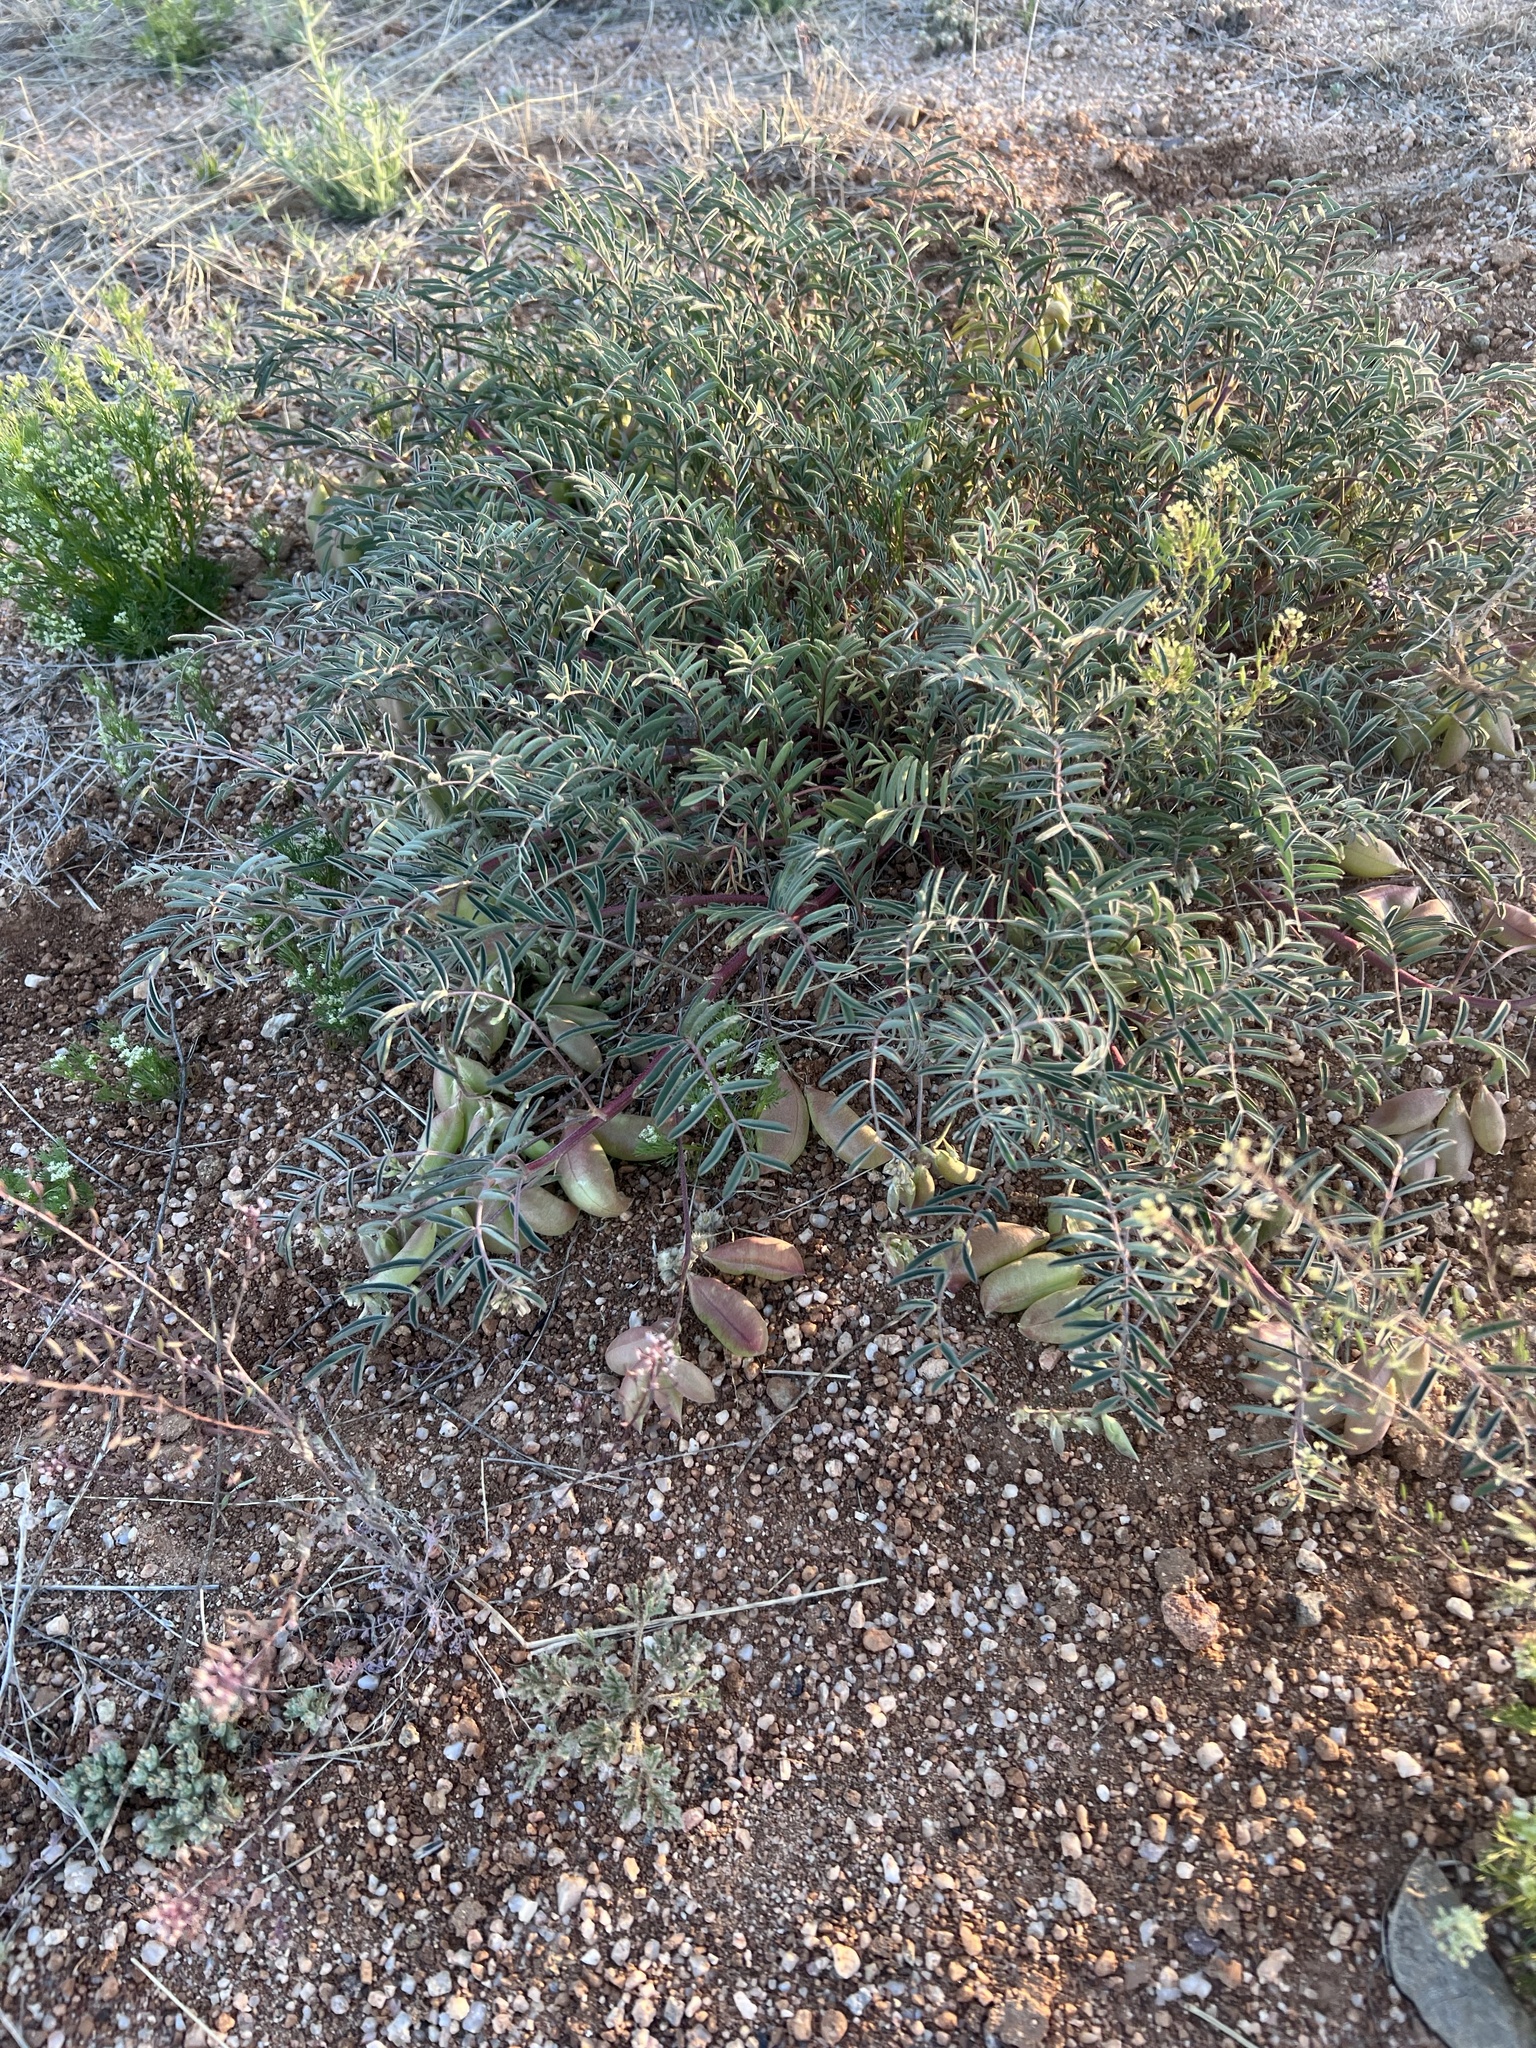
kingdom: Plantae
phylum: Tracheophyta
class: Magnoliopsida
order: Fabales
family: Fabaceae
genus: Astragalus
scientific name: Astragalus allochrous
